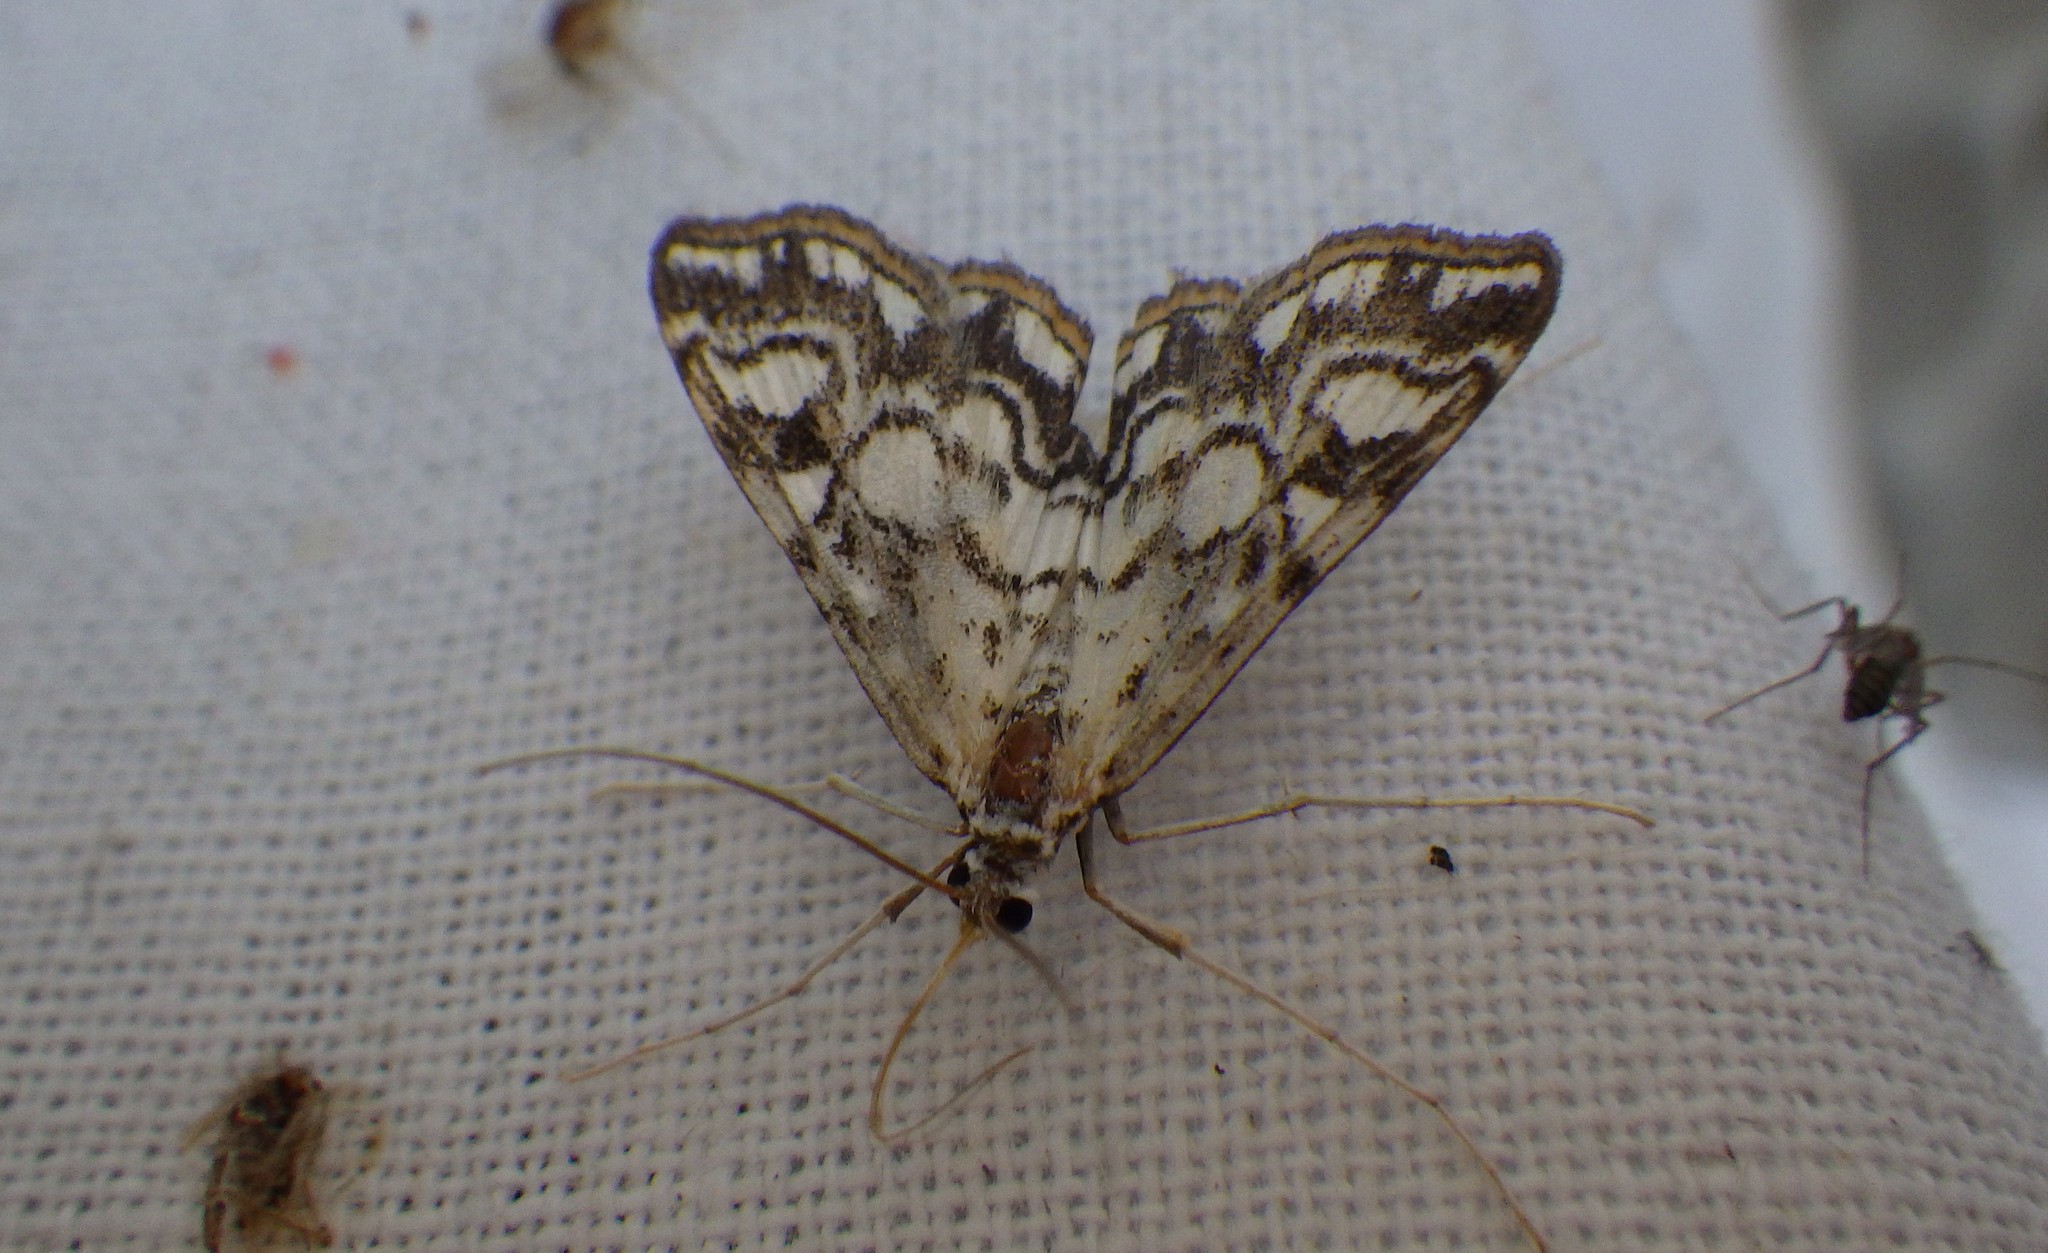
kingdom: Animalia
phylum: Arthropoda
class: Insecta
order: Lepidoptera
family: Crambidae
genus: Elophila
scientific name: Elophila nymphaeata
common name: Brown china-mark
